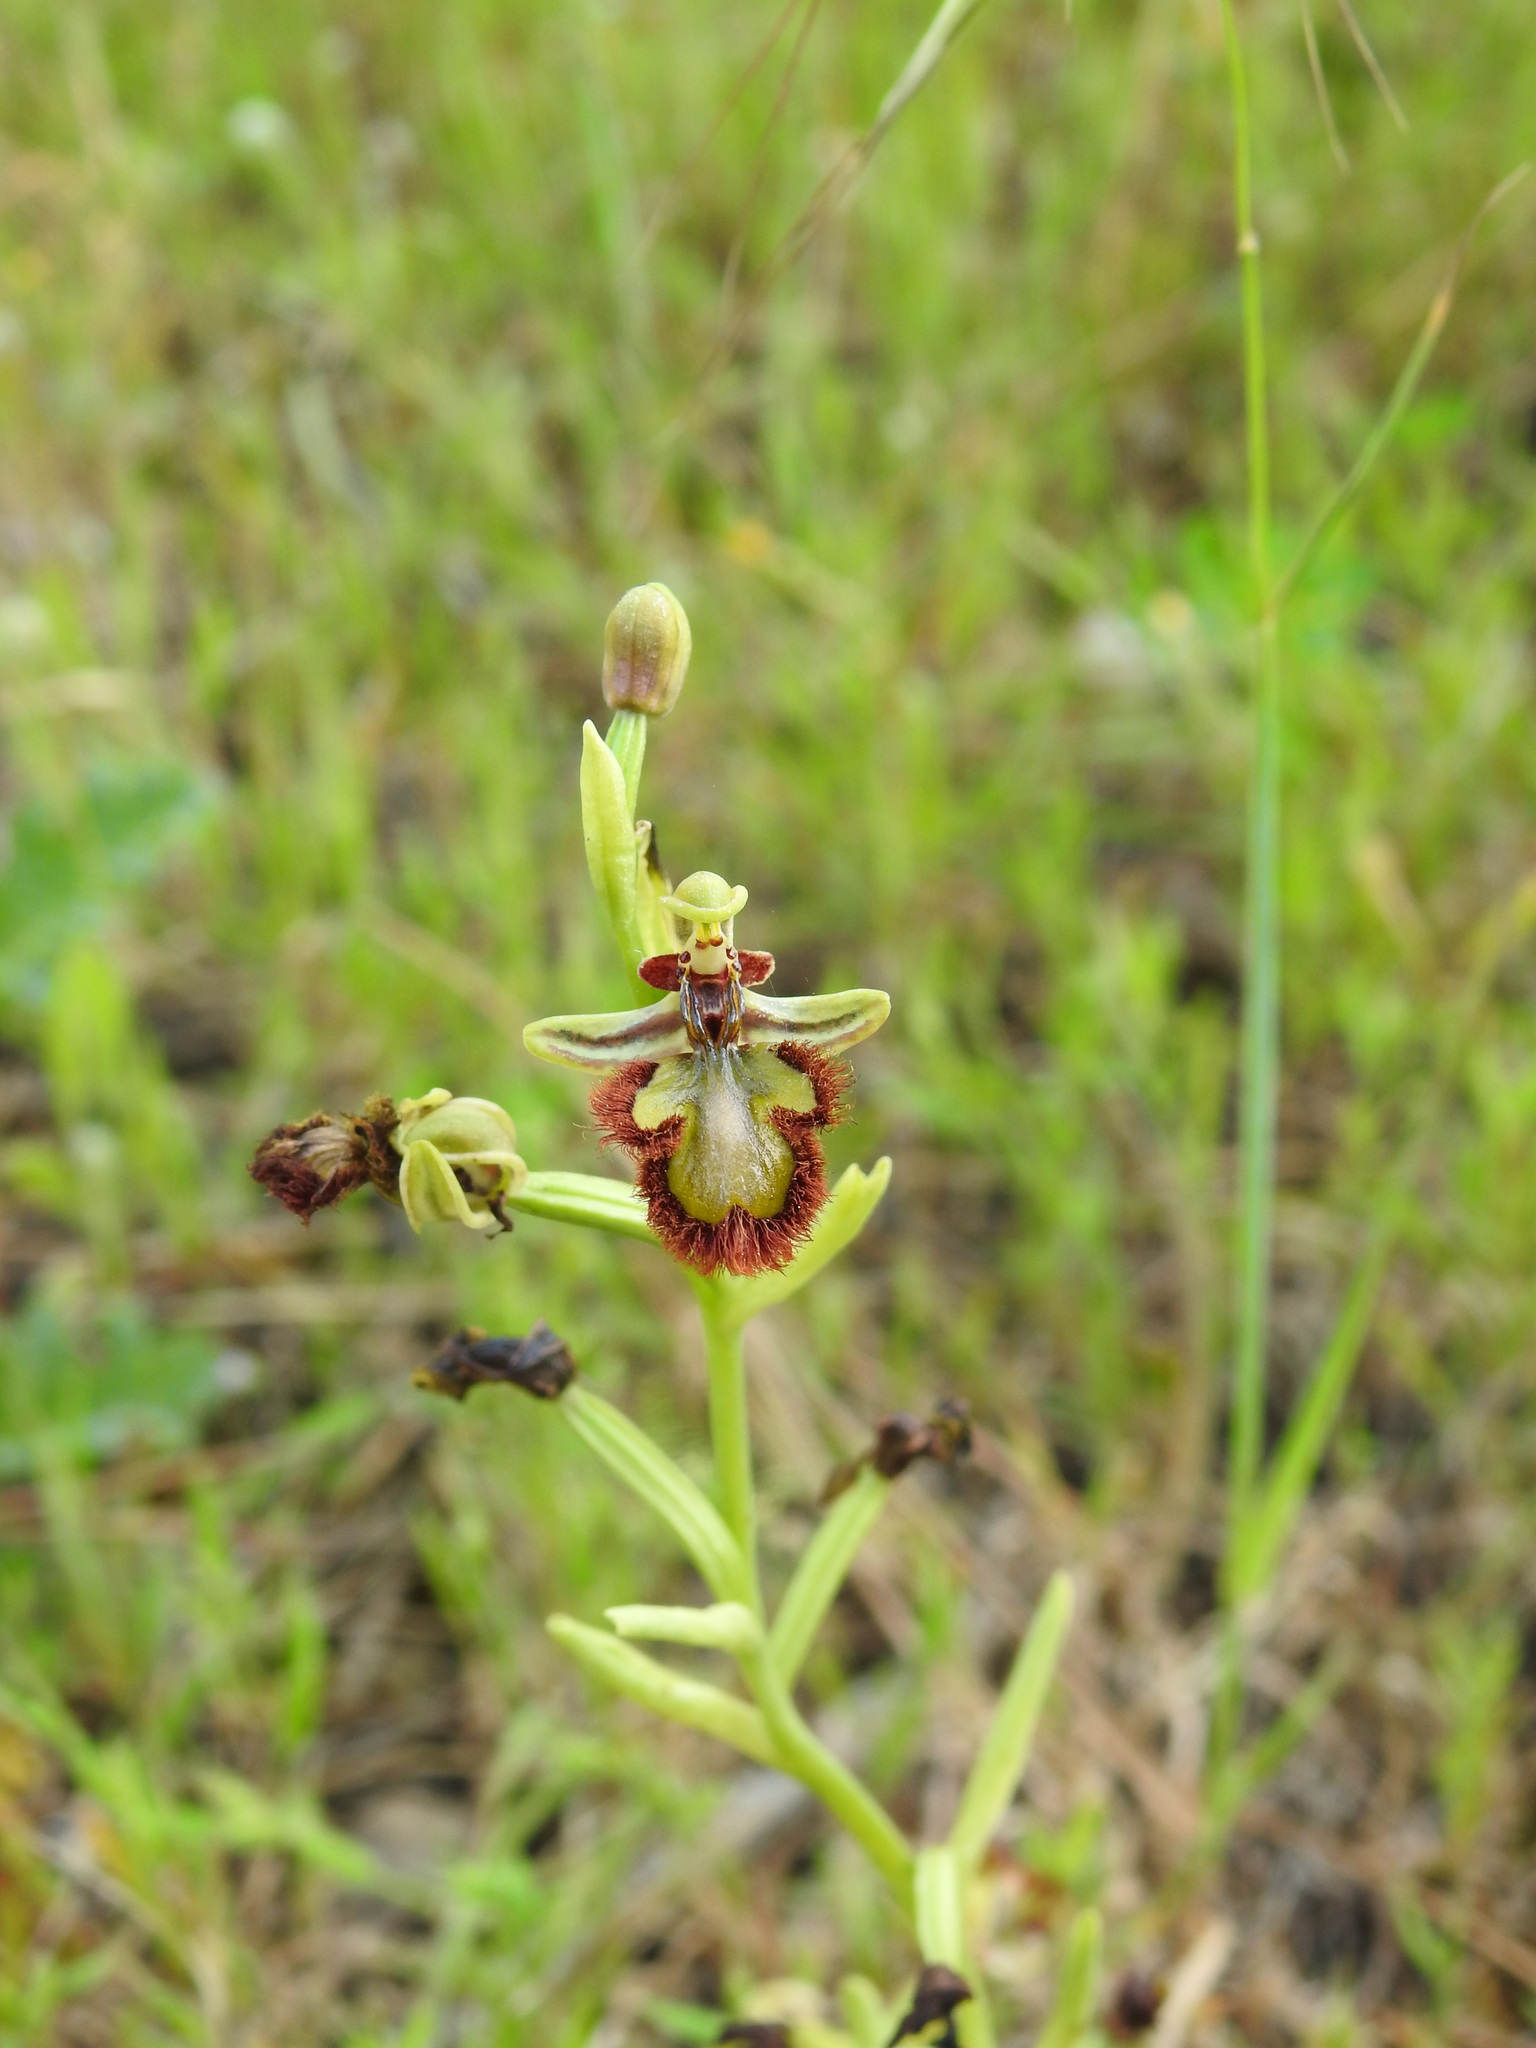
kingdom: Plantae
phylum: Tracheophyta
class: Liliopsida
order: Asparagales
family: Orchidaceae
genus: Ophrys
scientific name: Ophrys speculum
